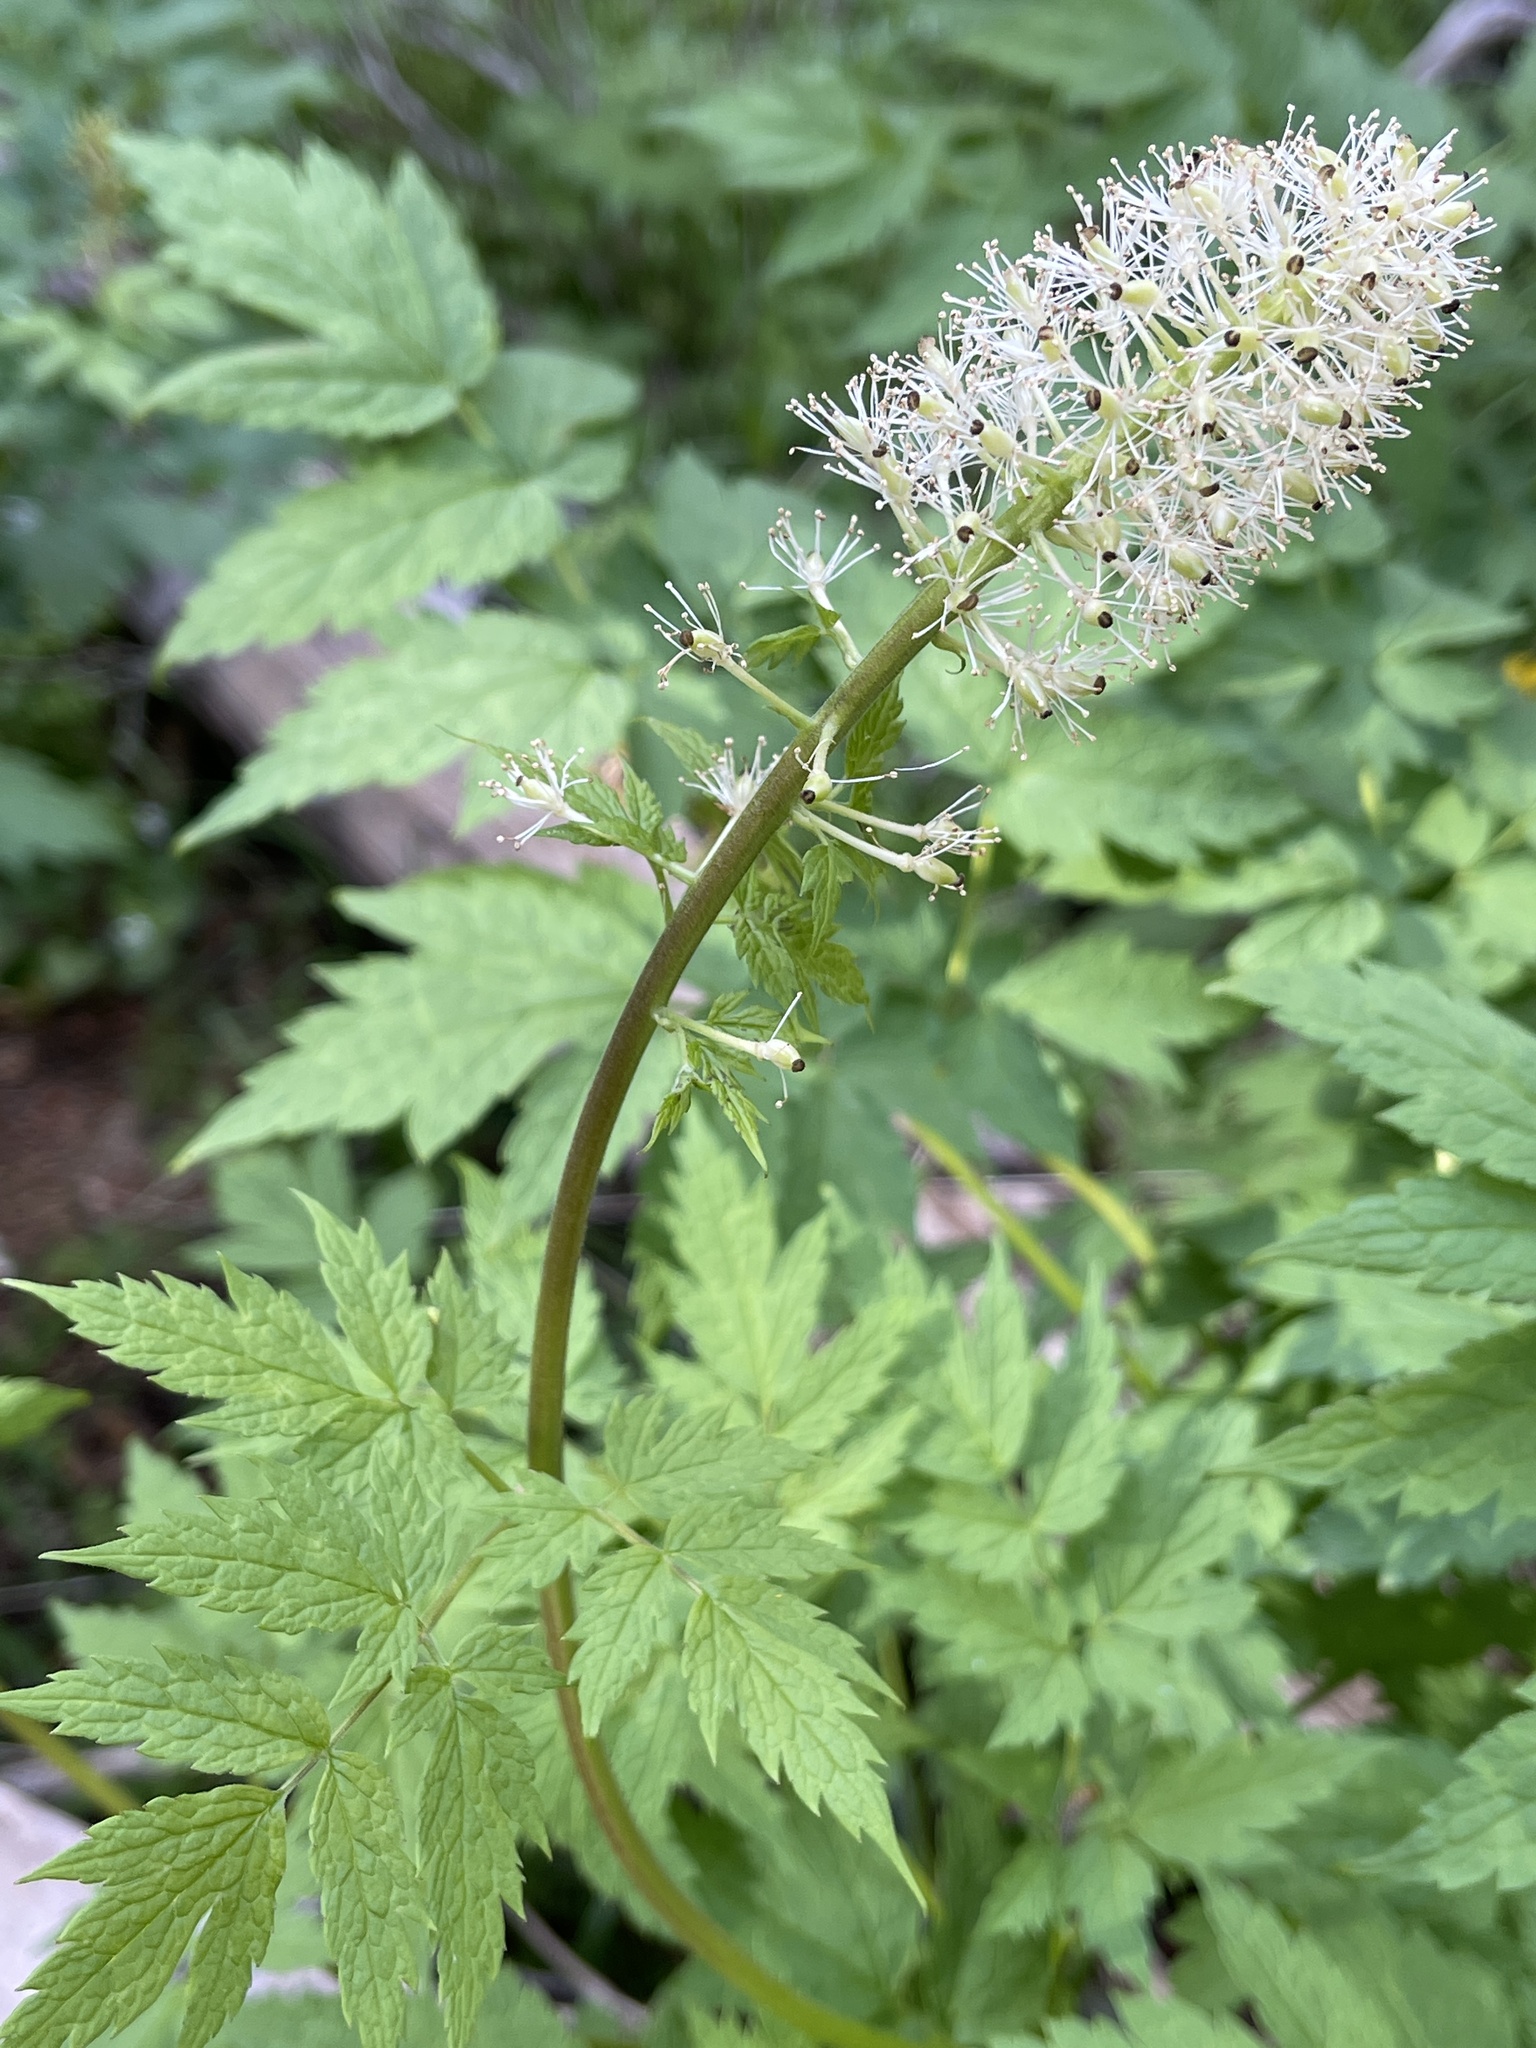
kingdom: Plantae
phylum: Tracheophyta
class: Magnoliopsida
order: Ranunculales
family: Ranunculaceae
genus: Actaea
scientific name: Actaea rubra
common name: Red baneberry
